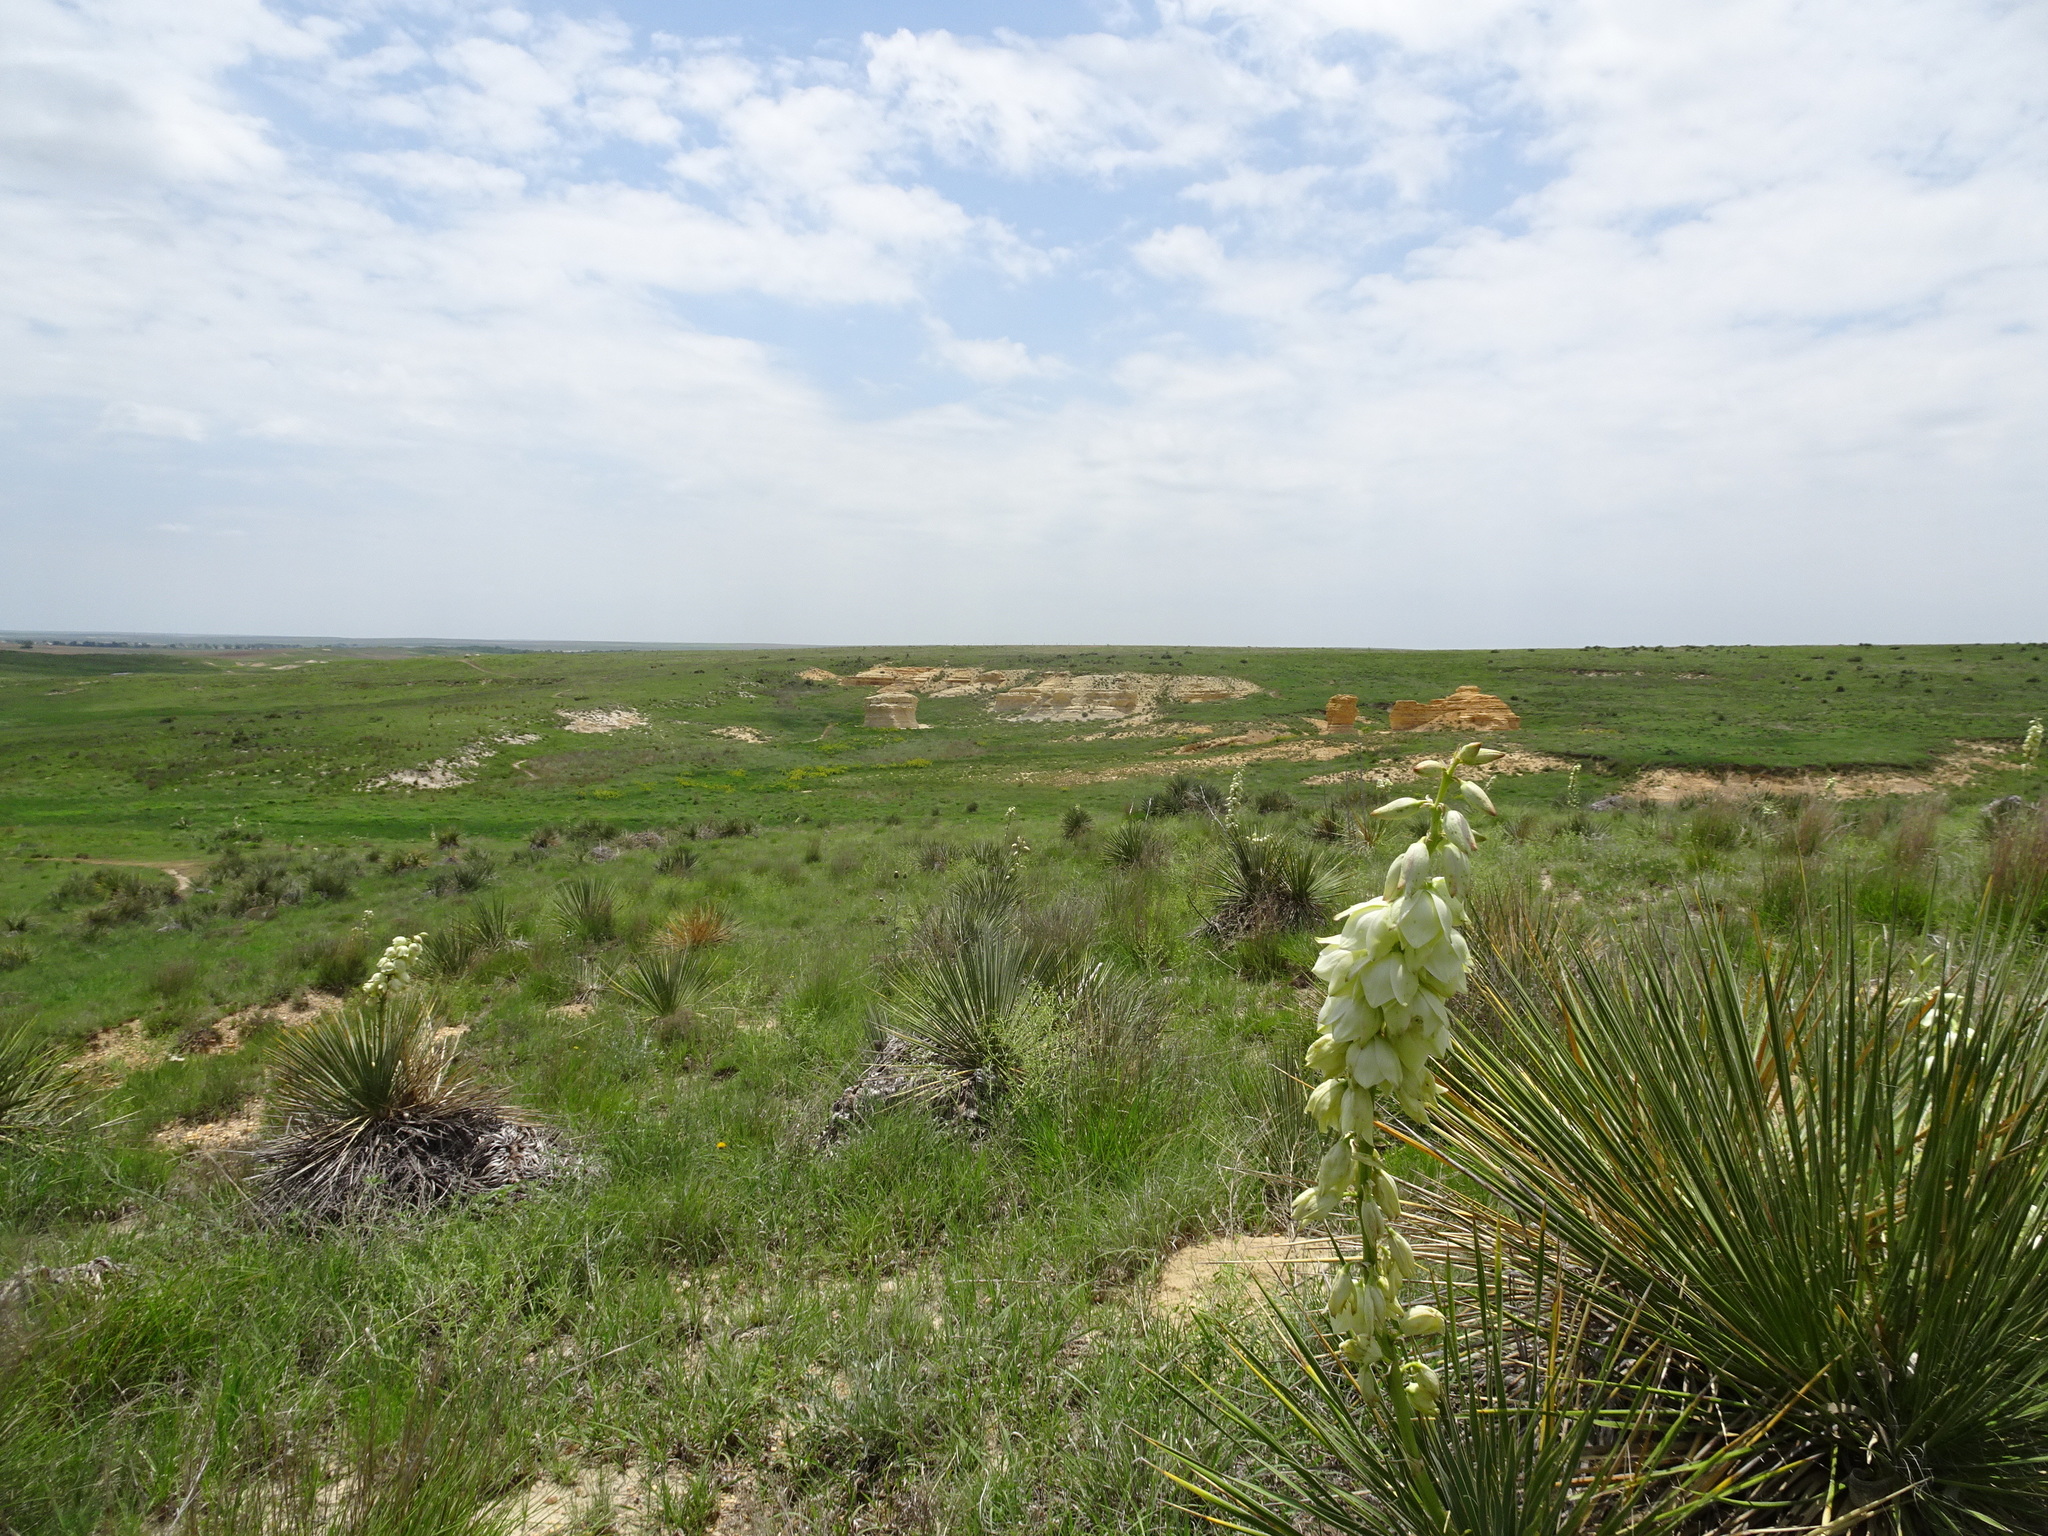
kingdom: Plantae
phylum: Tracheophyta
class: Liliopsida
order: Asparagales
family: Asparagaceae
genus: Yucca
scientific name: Yucca glauca
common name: Great plains yucca
